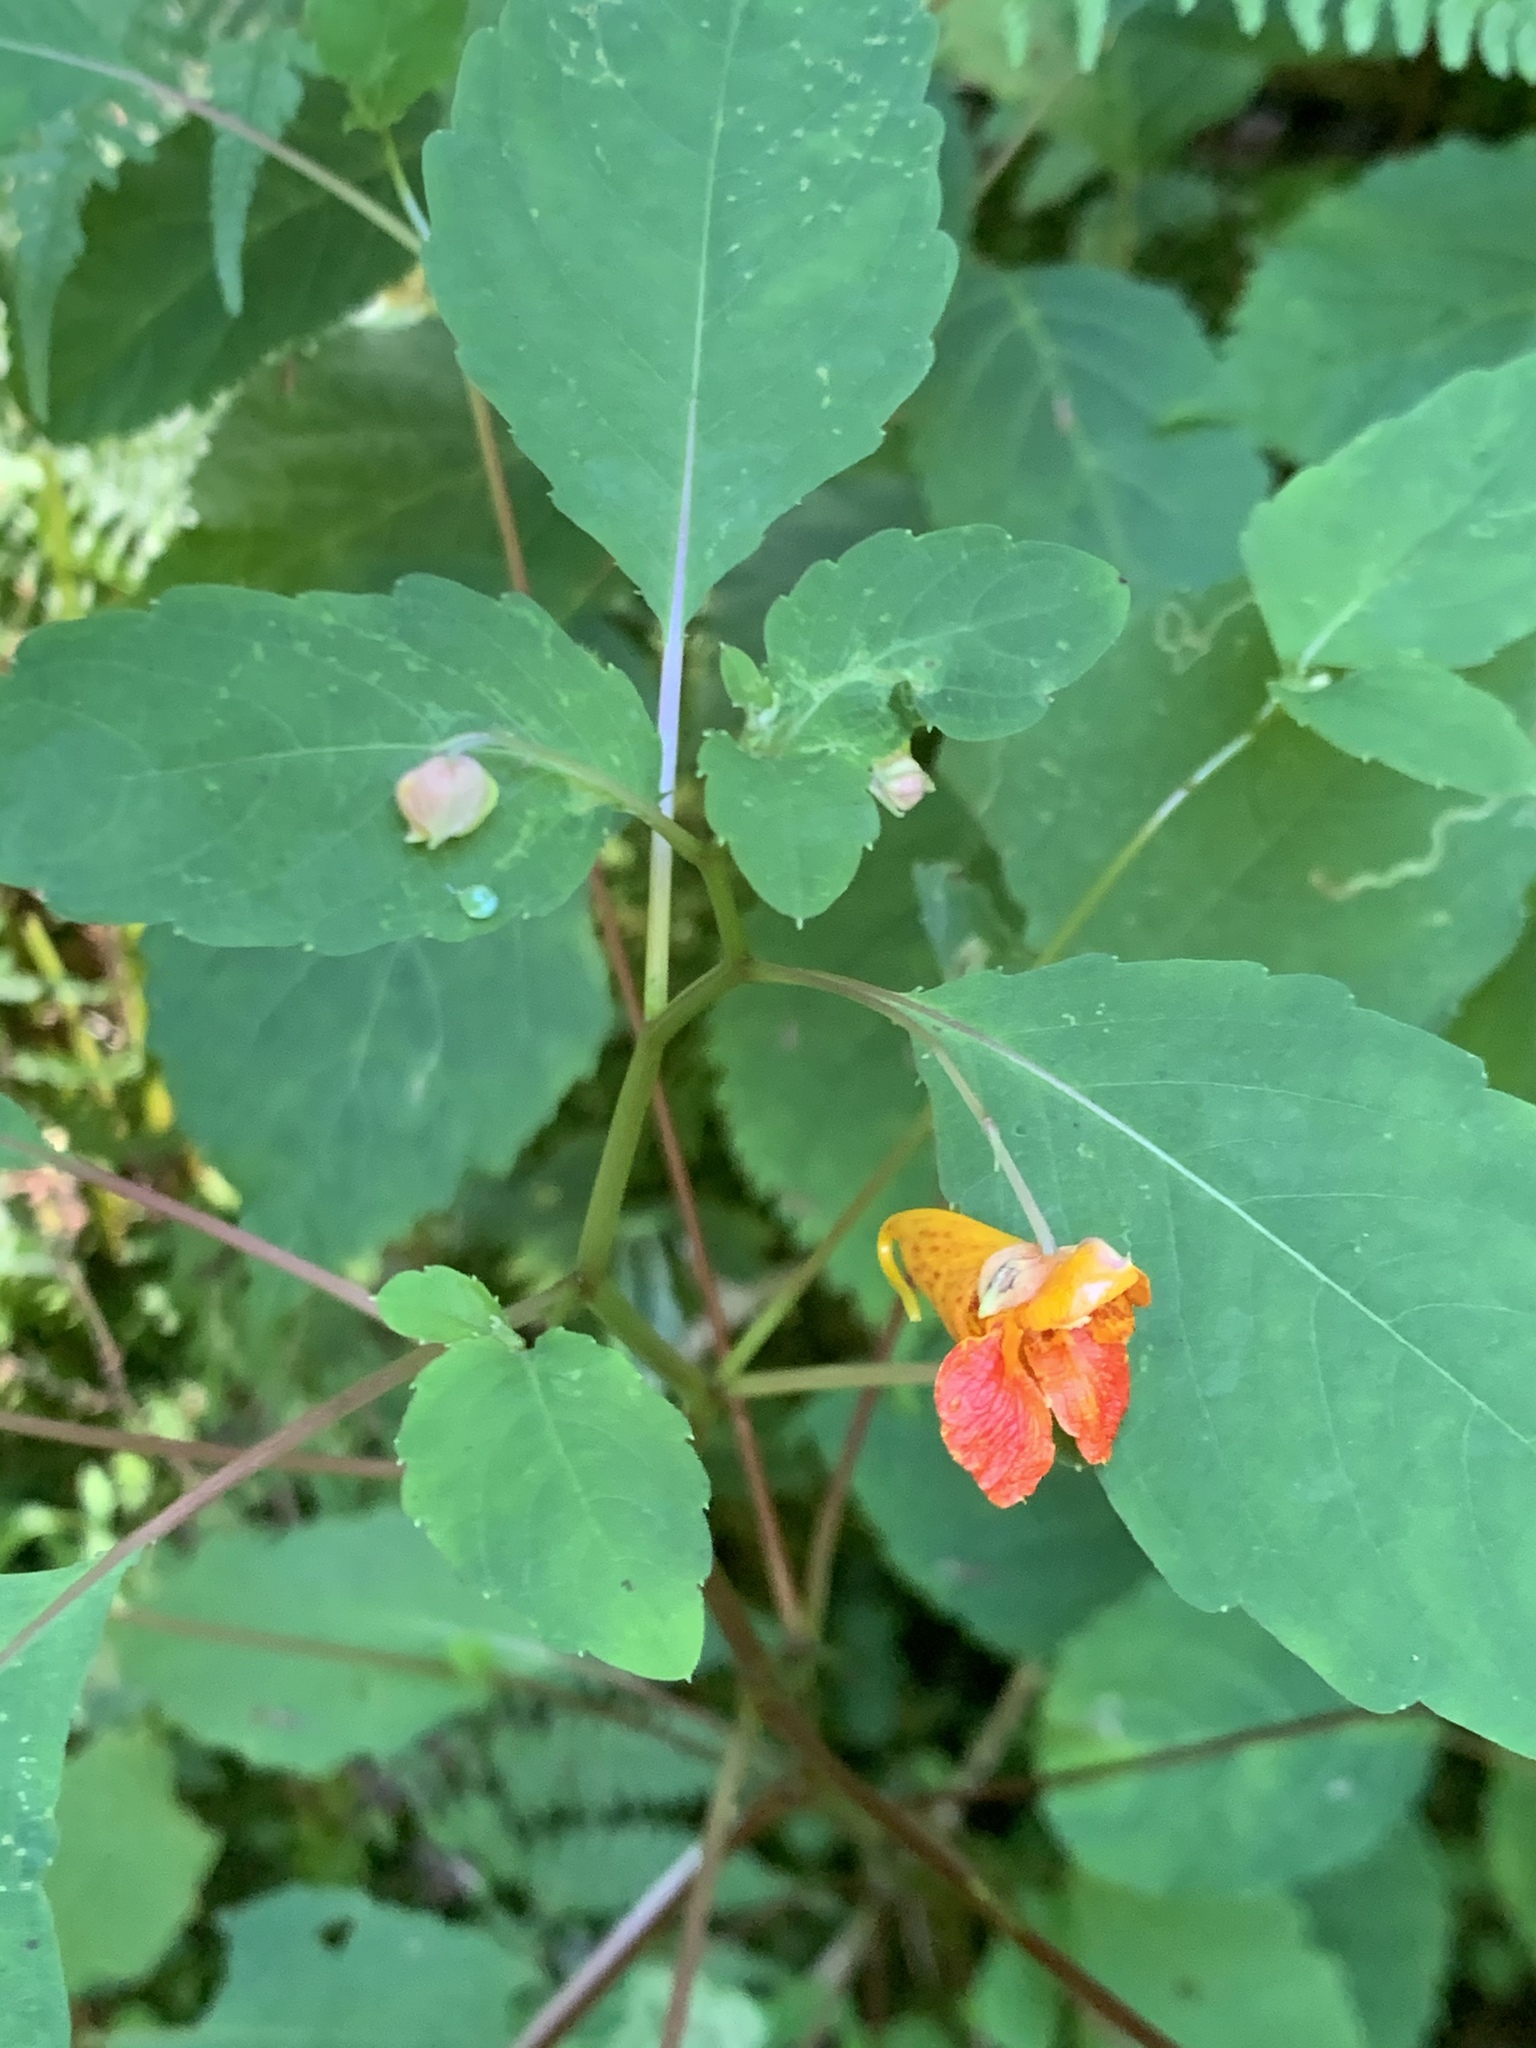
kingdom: Plantae
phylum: Tracheophyta
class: Magnoliopsida
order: Ericales
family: Balsaminaceae
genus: Impatiens
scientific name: Impatiens capensis
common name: Orange balsam
